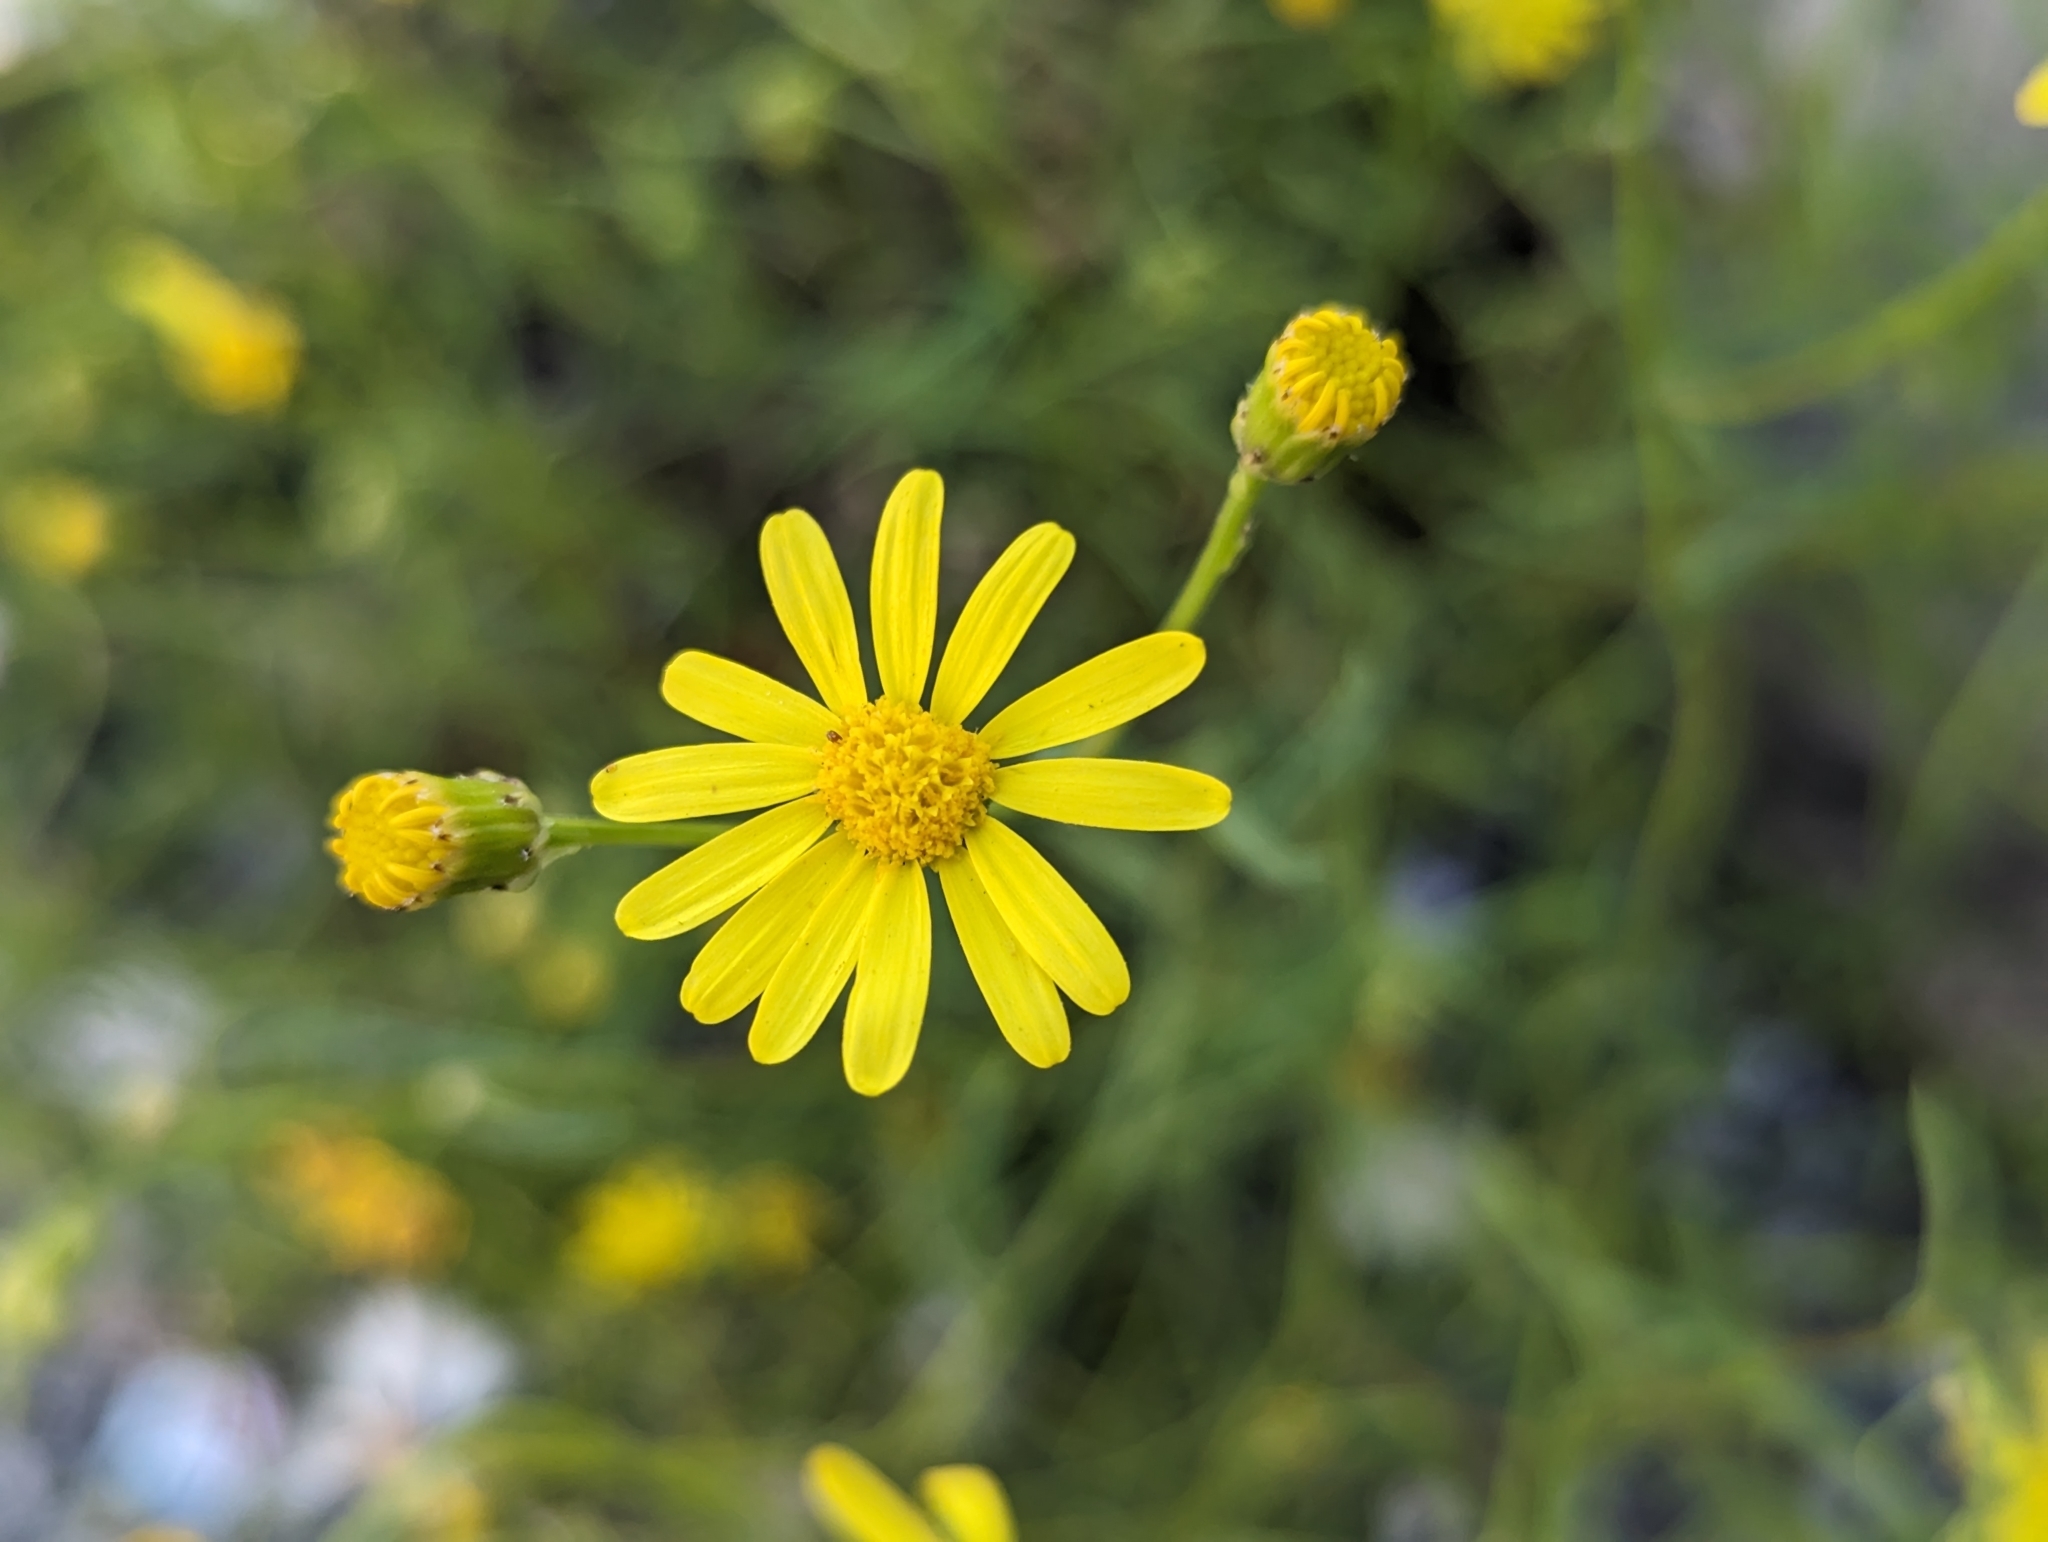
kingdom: Plantae
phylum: Tracheophyta
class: Magnoliopsida
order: Asterales
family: Asteraceae
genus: Senecio
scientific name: Senecio inaequidens
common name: Narrow-leaved ragwort
